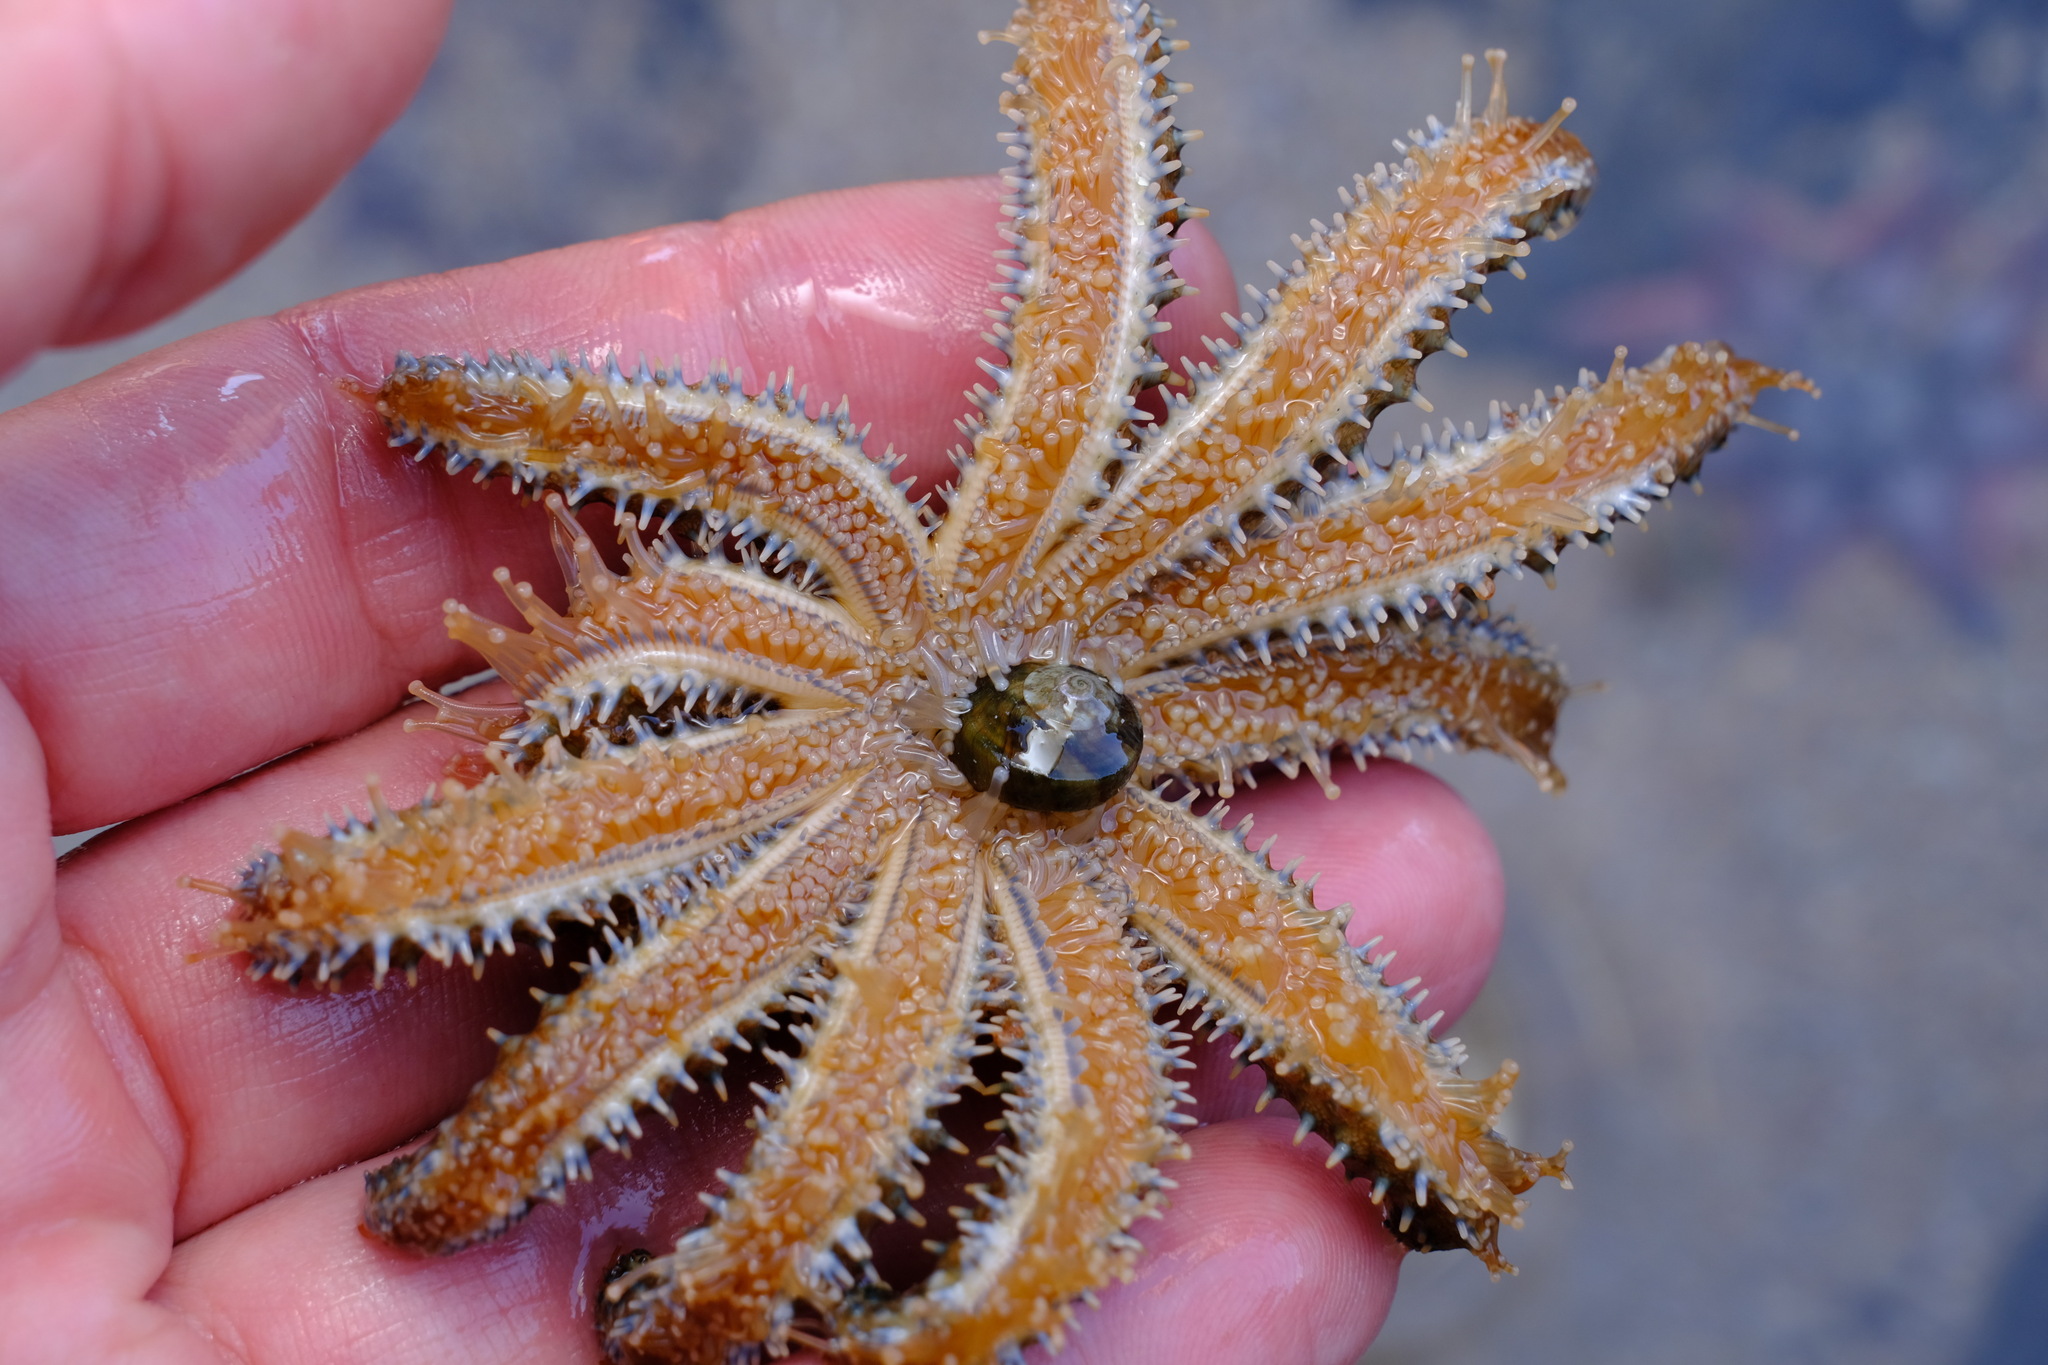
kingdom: Animalia
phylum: Echinodermata
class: Asteroidea
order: Forcipulatida
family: Asteriidae
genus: Coscinasterias
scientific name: Coscinasterias muricata
